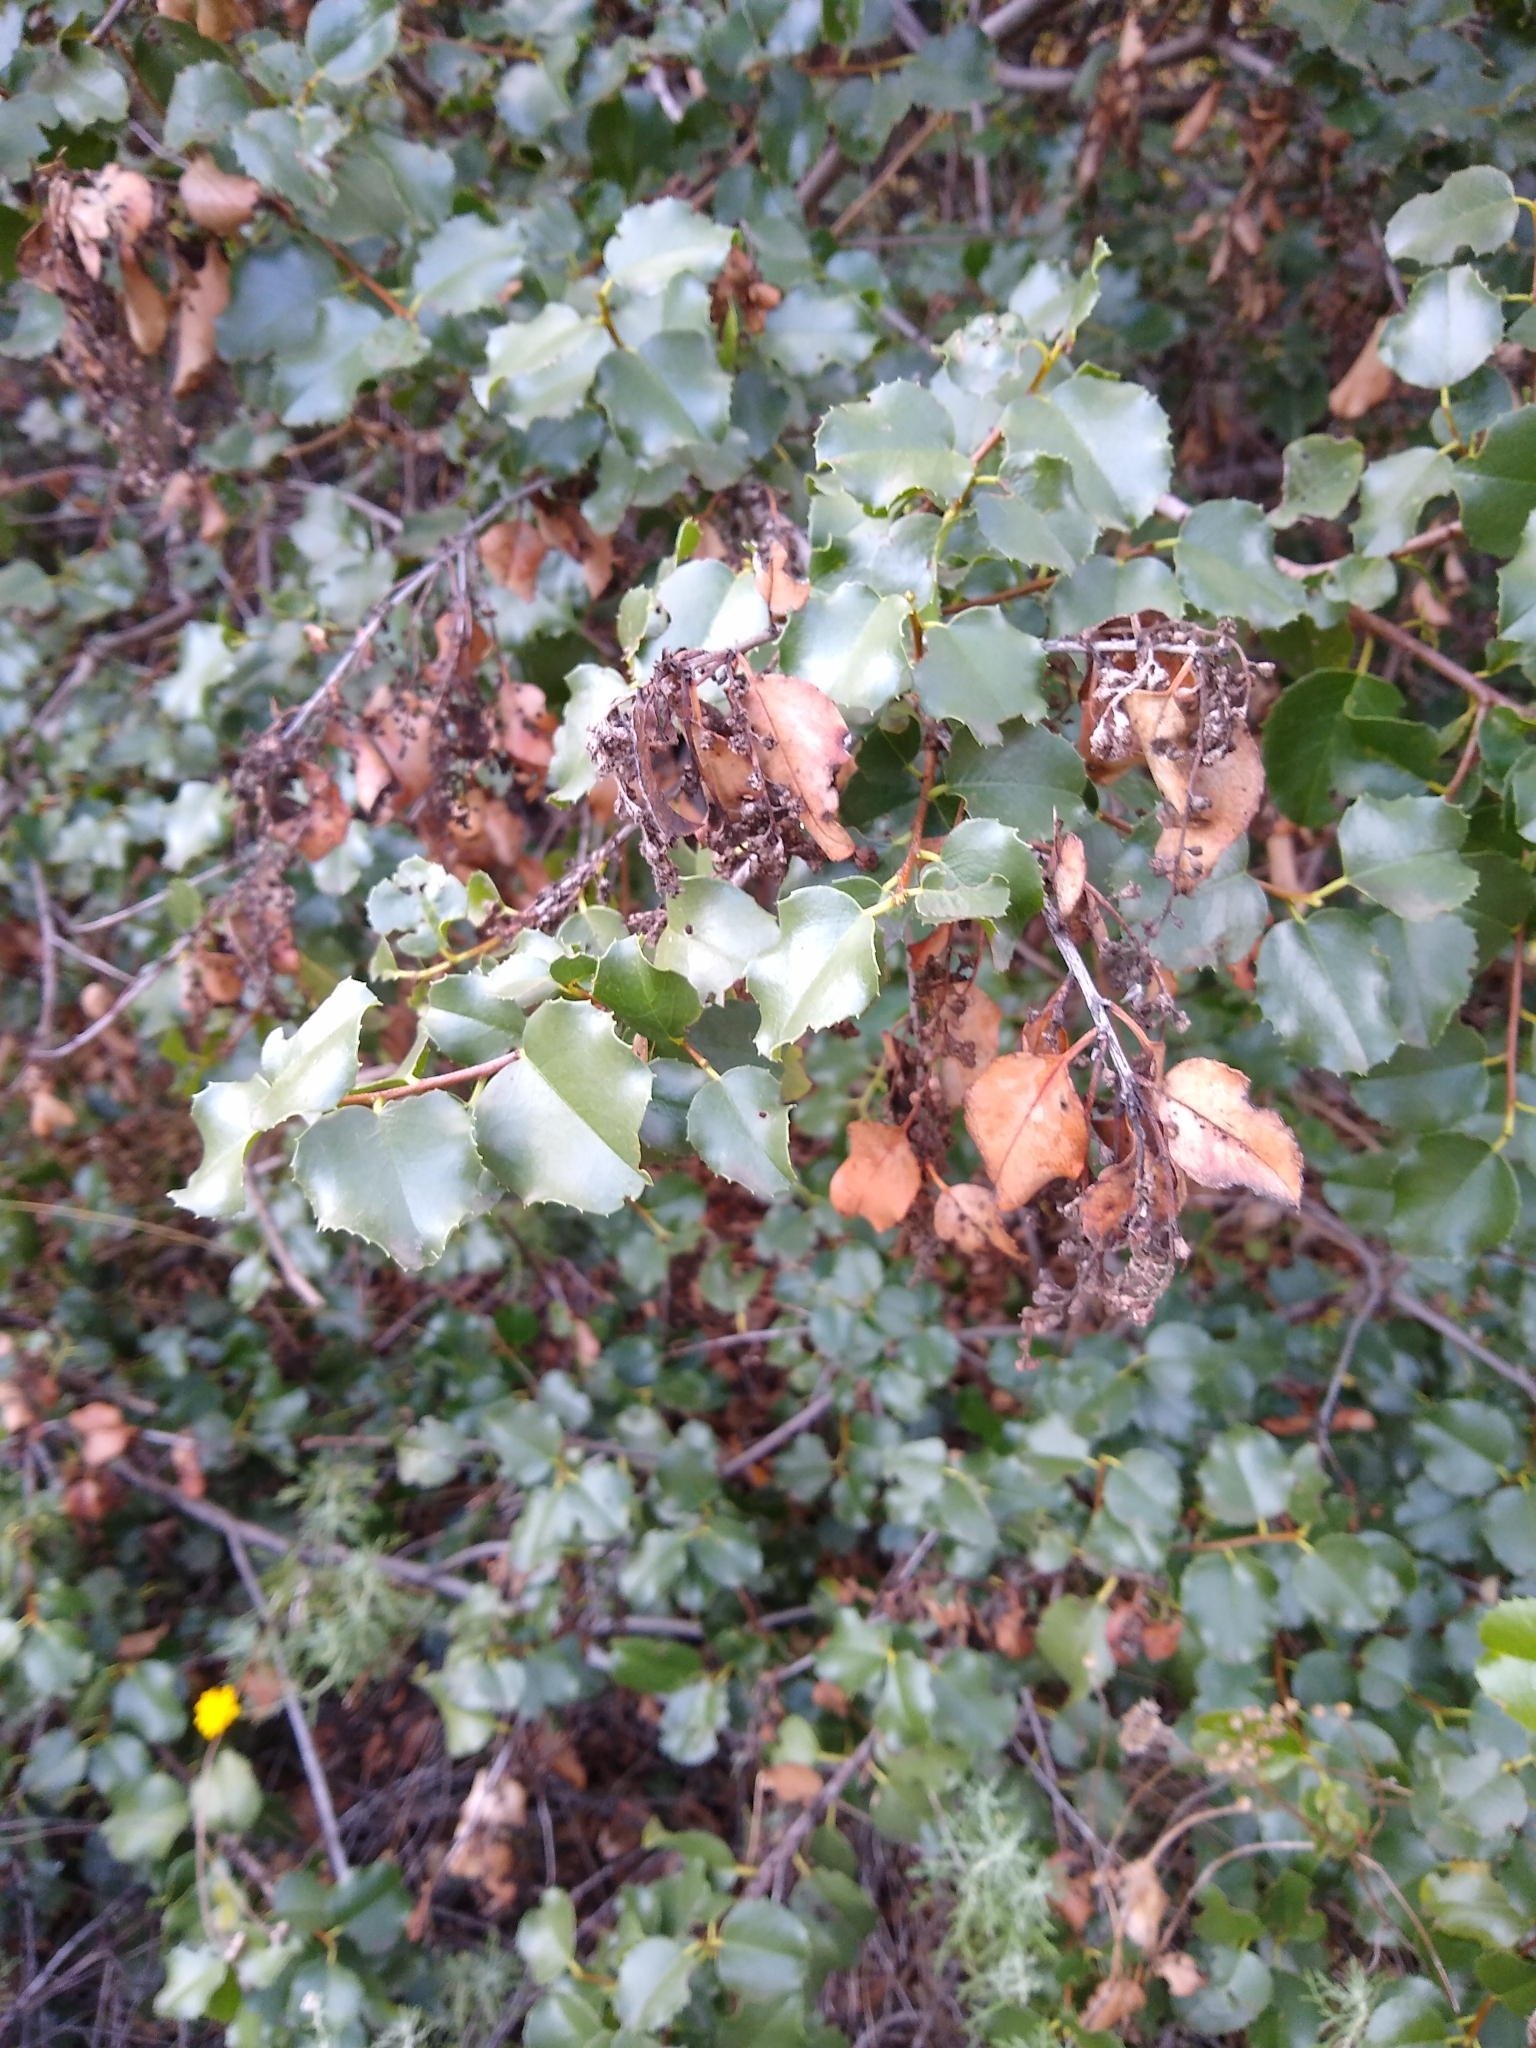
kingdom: Plantae
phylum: Tracheophyta
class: Magnoliopsida
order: Rosales
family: Rosaceae
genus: Prunus
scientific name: Prunus ilicifolia
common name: Hollyleaf cherry
